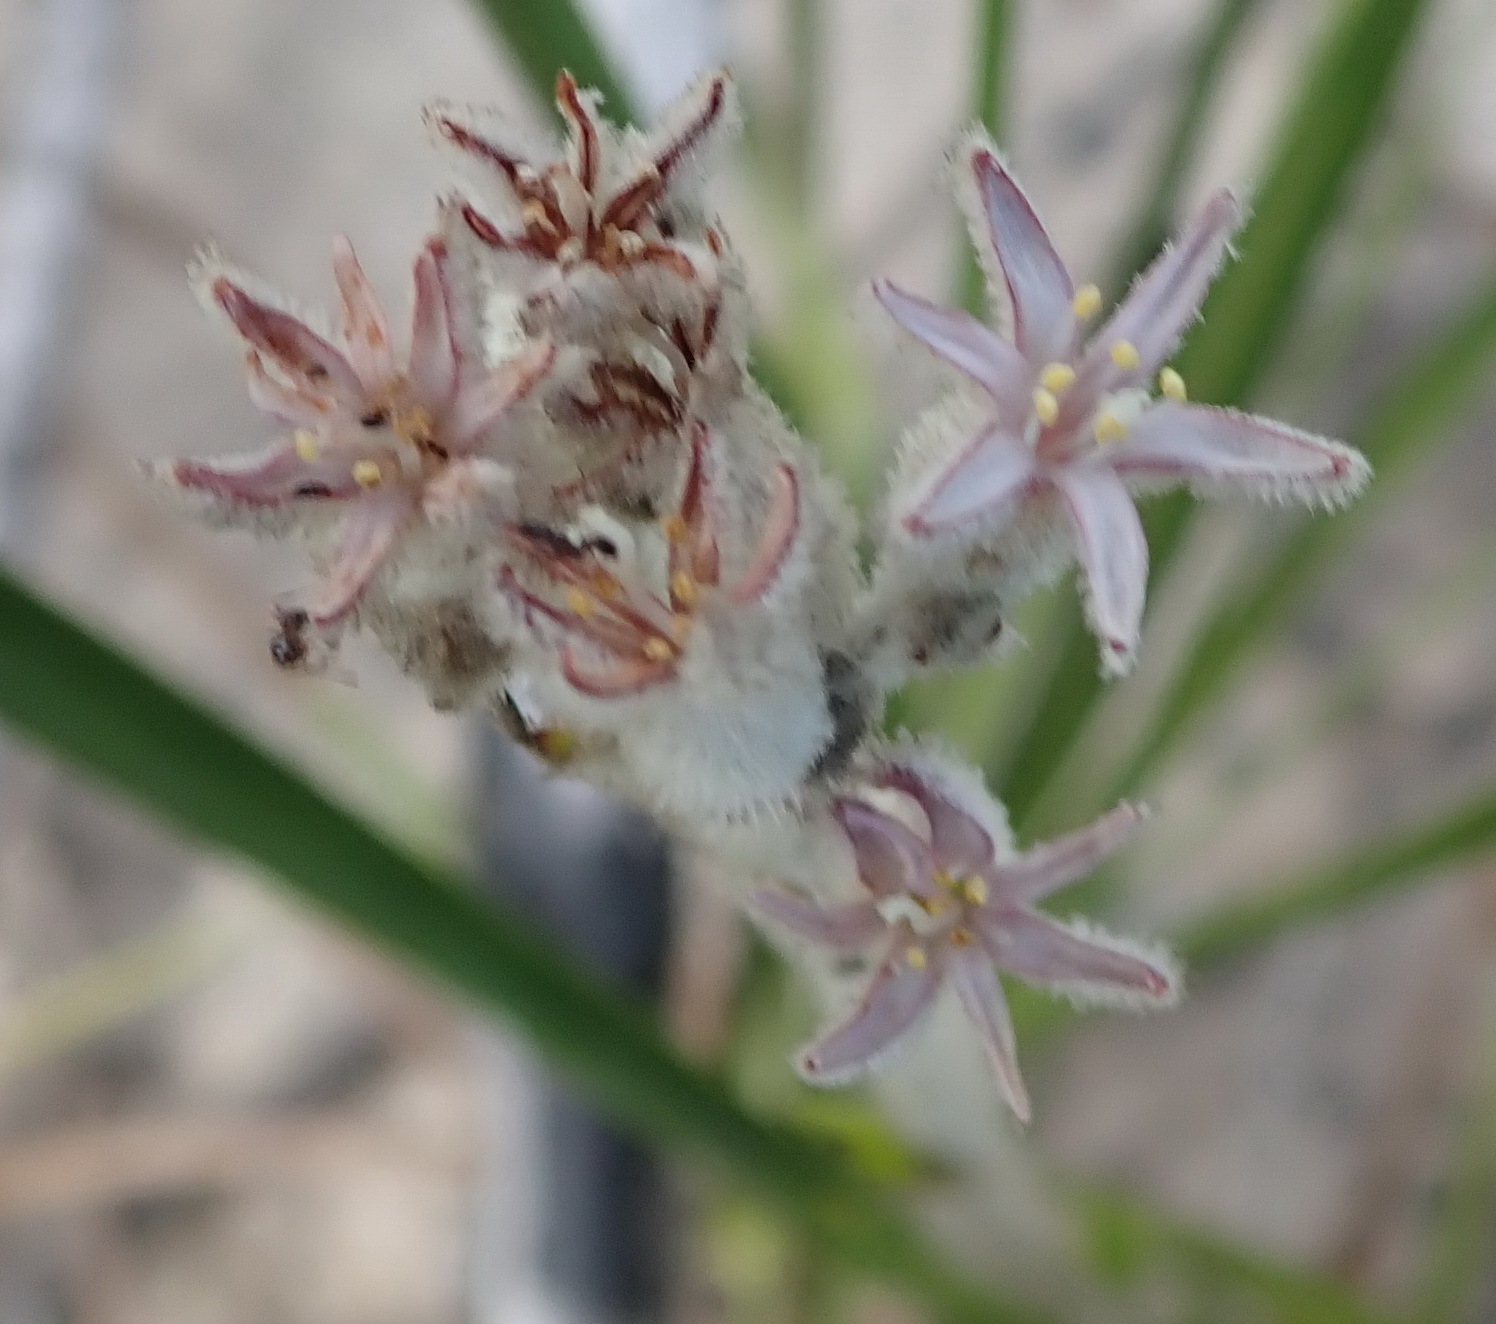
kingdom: Plantae
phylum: Tracheophyta
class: Liliopsida
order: Asparagales
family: Lanariaceae
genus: Lanaria
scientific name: Lanaria lanata
